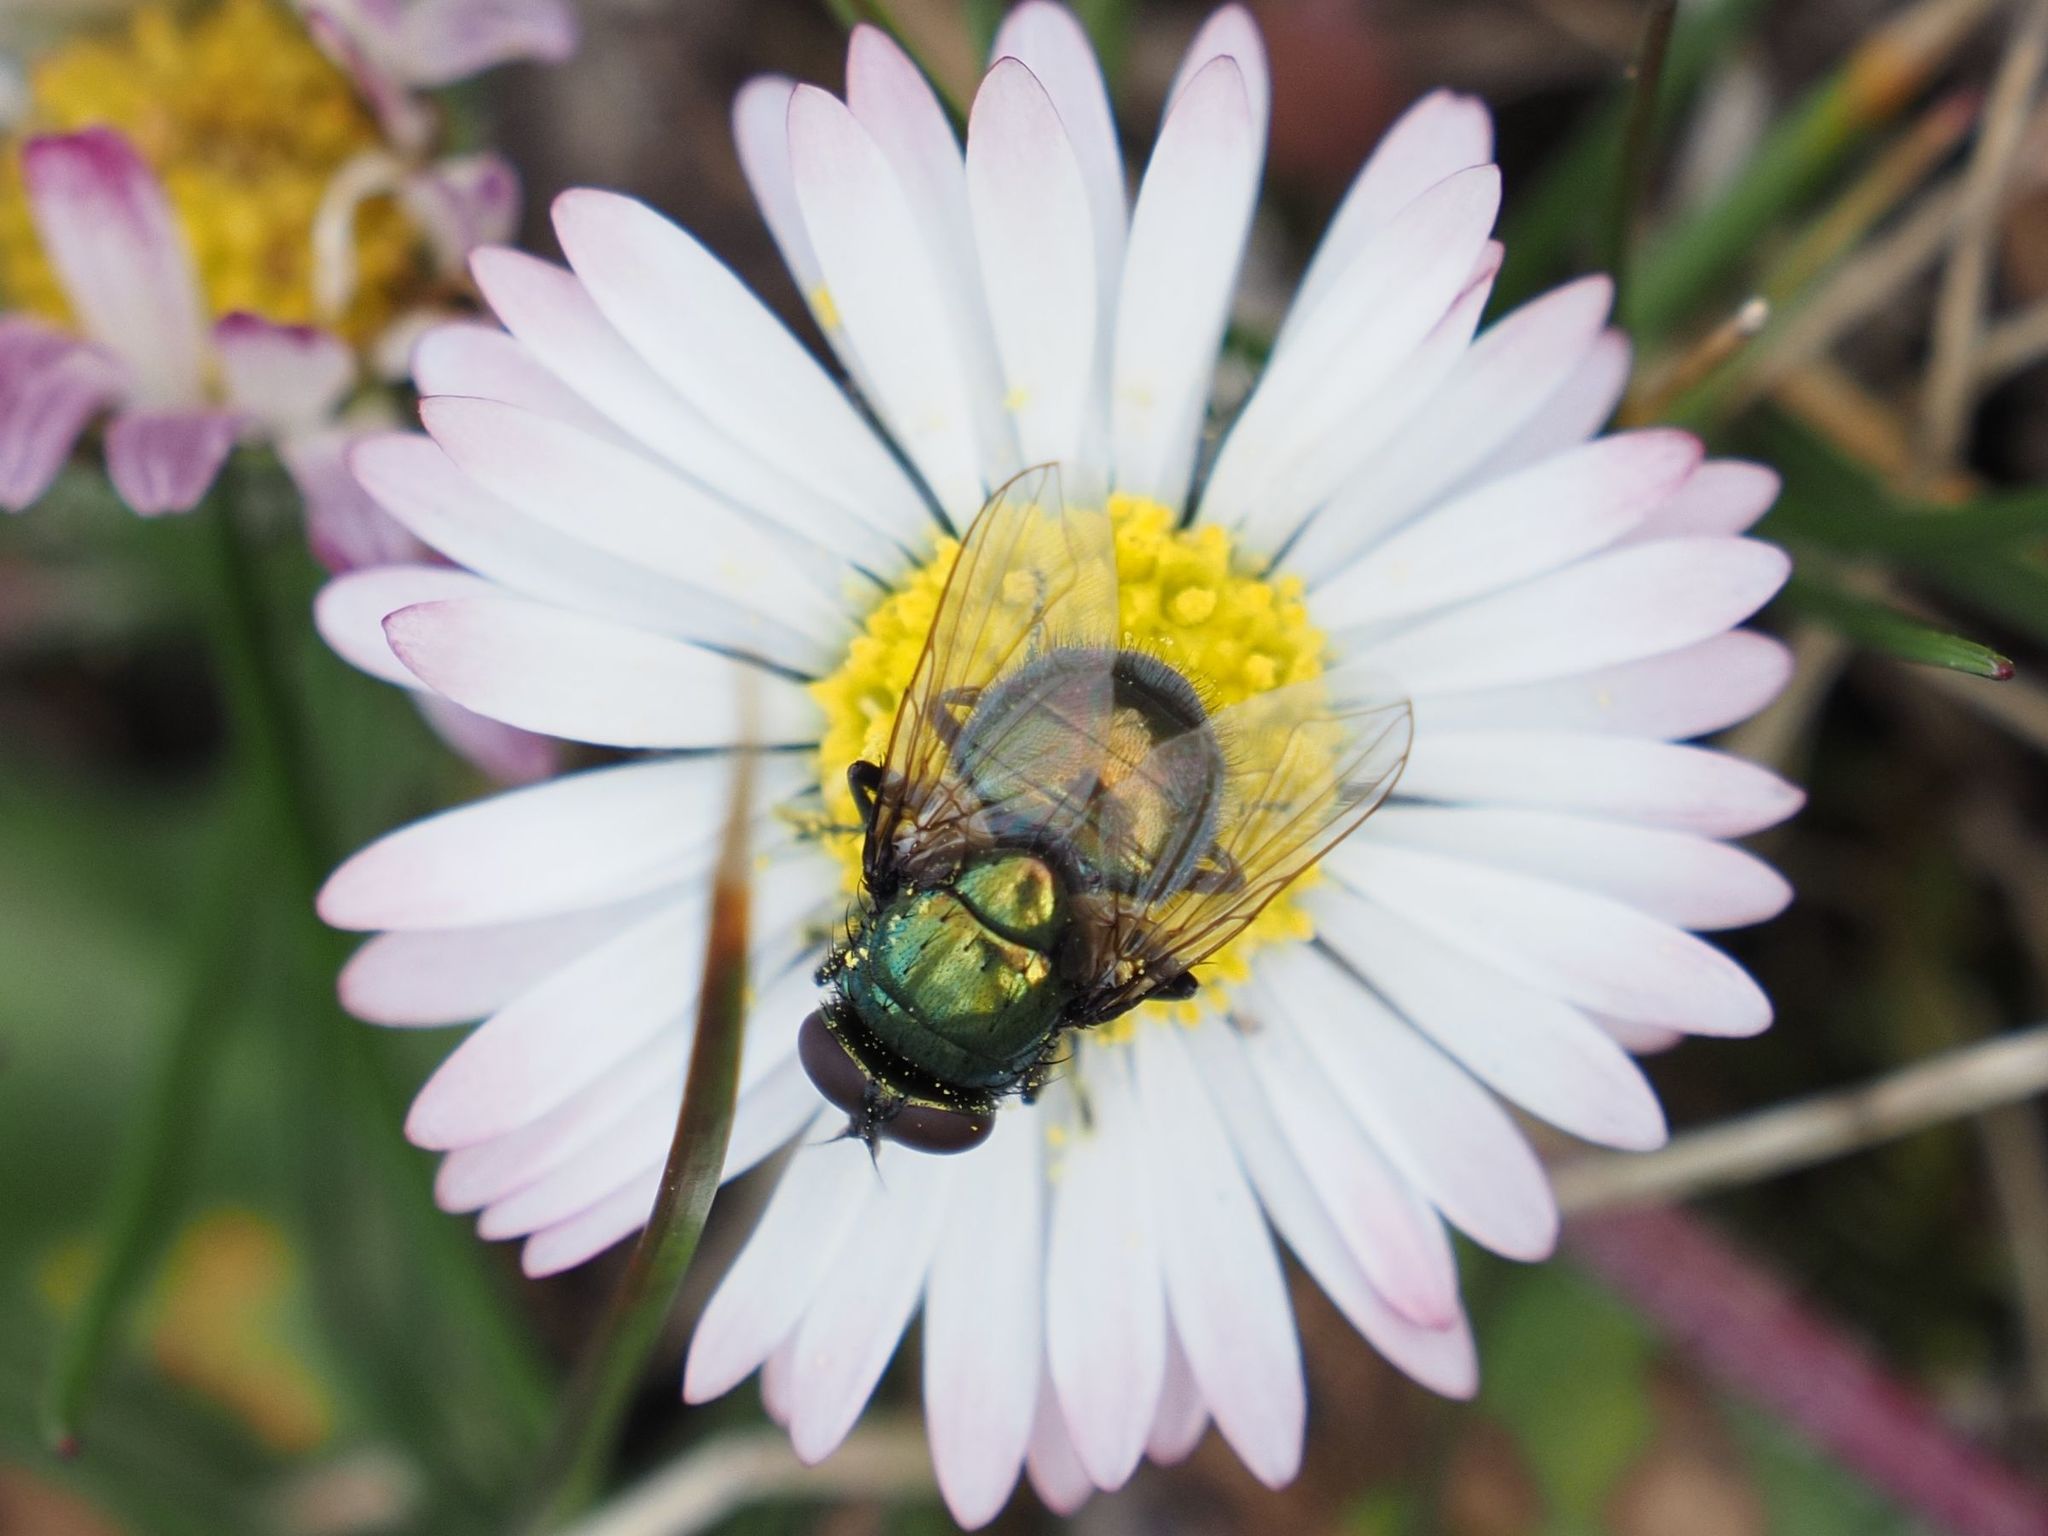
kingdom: Animalia
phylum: Arthropoda
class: Insecta
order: Diptera
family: Muscidae
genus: Neomyia
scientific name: Neomyia cornicina
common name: House fly
